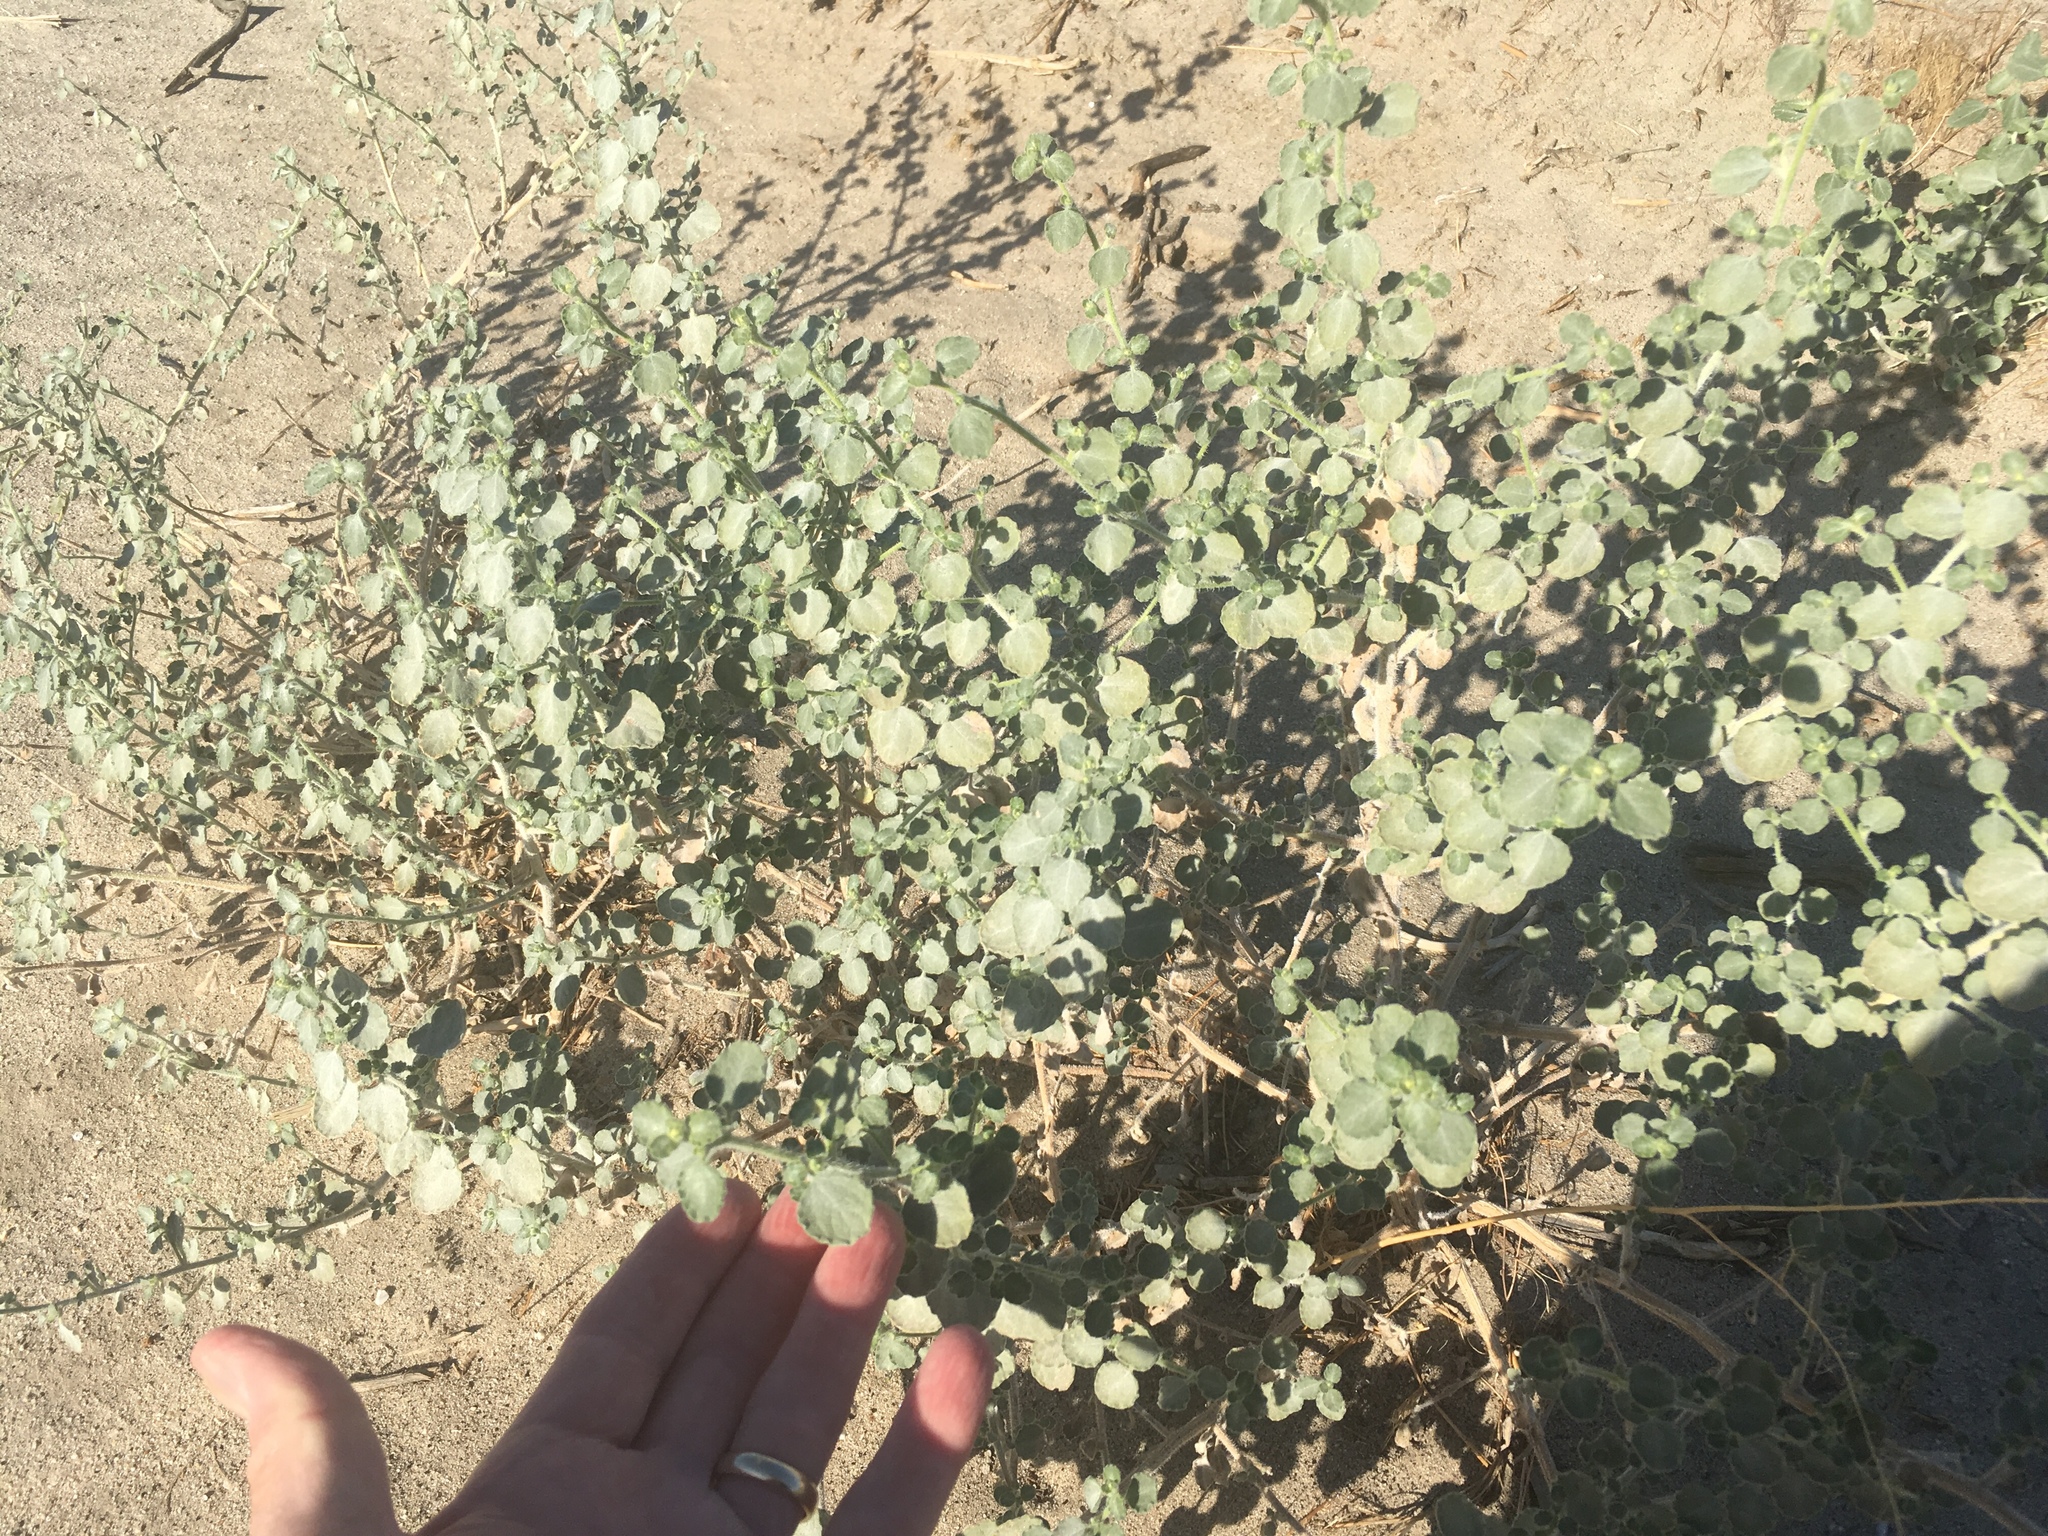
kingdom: Plantae
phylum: Tracheophyta
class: Magnoliopsida
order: Asterales
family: Asteraceae
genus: Dicoria
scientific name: Dicoria canescens
